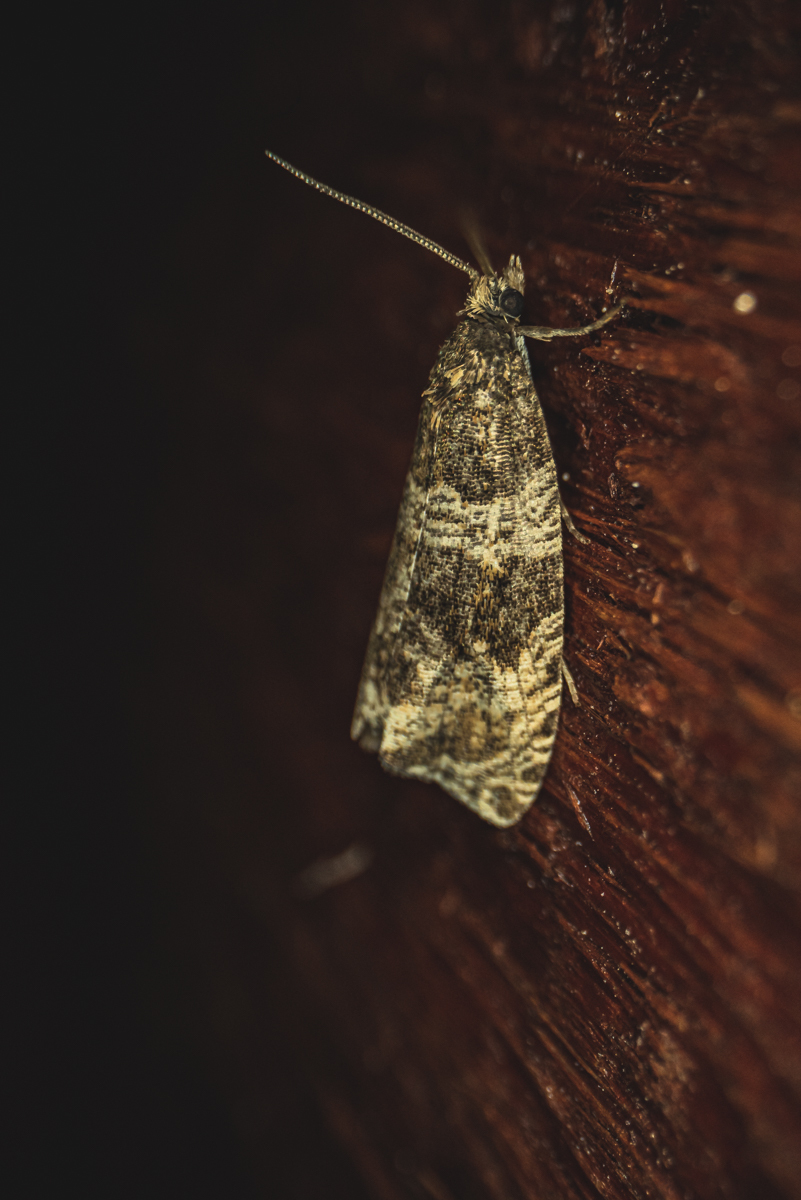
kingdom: Animalia
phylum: Arthropoda
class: Insecta
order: Lepidoptera
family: Tortricidae
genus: Syricoris
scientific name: Syricoris lacunana
